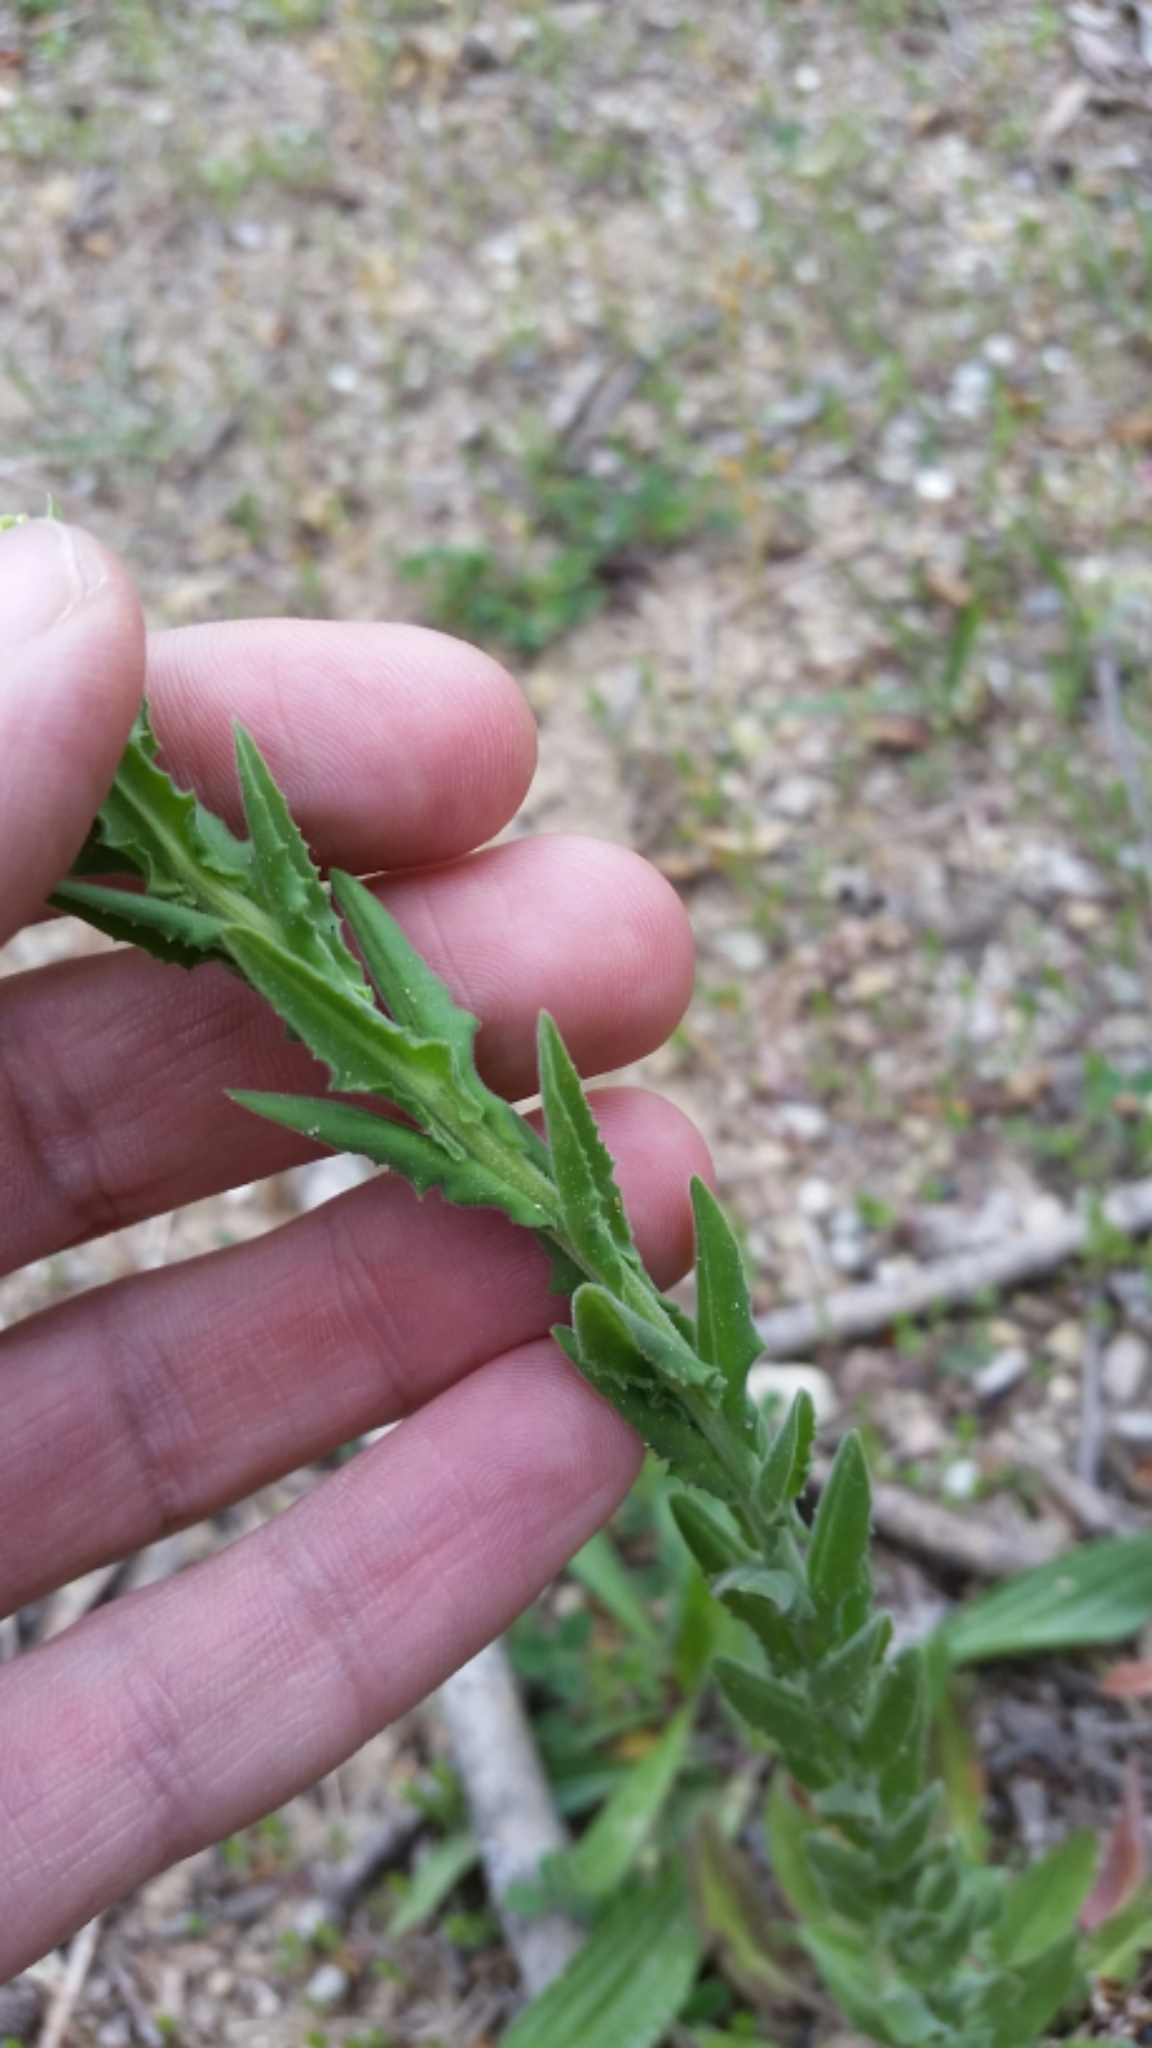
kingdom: Plantae
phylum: Tracheophyta
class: Magnoliopsida
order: Brassicales
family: Brassicaceae
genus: Lepidium
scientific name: Lepidium campestre
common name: Field pepperwort
